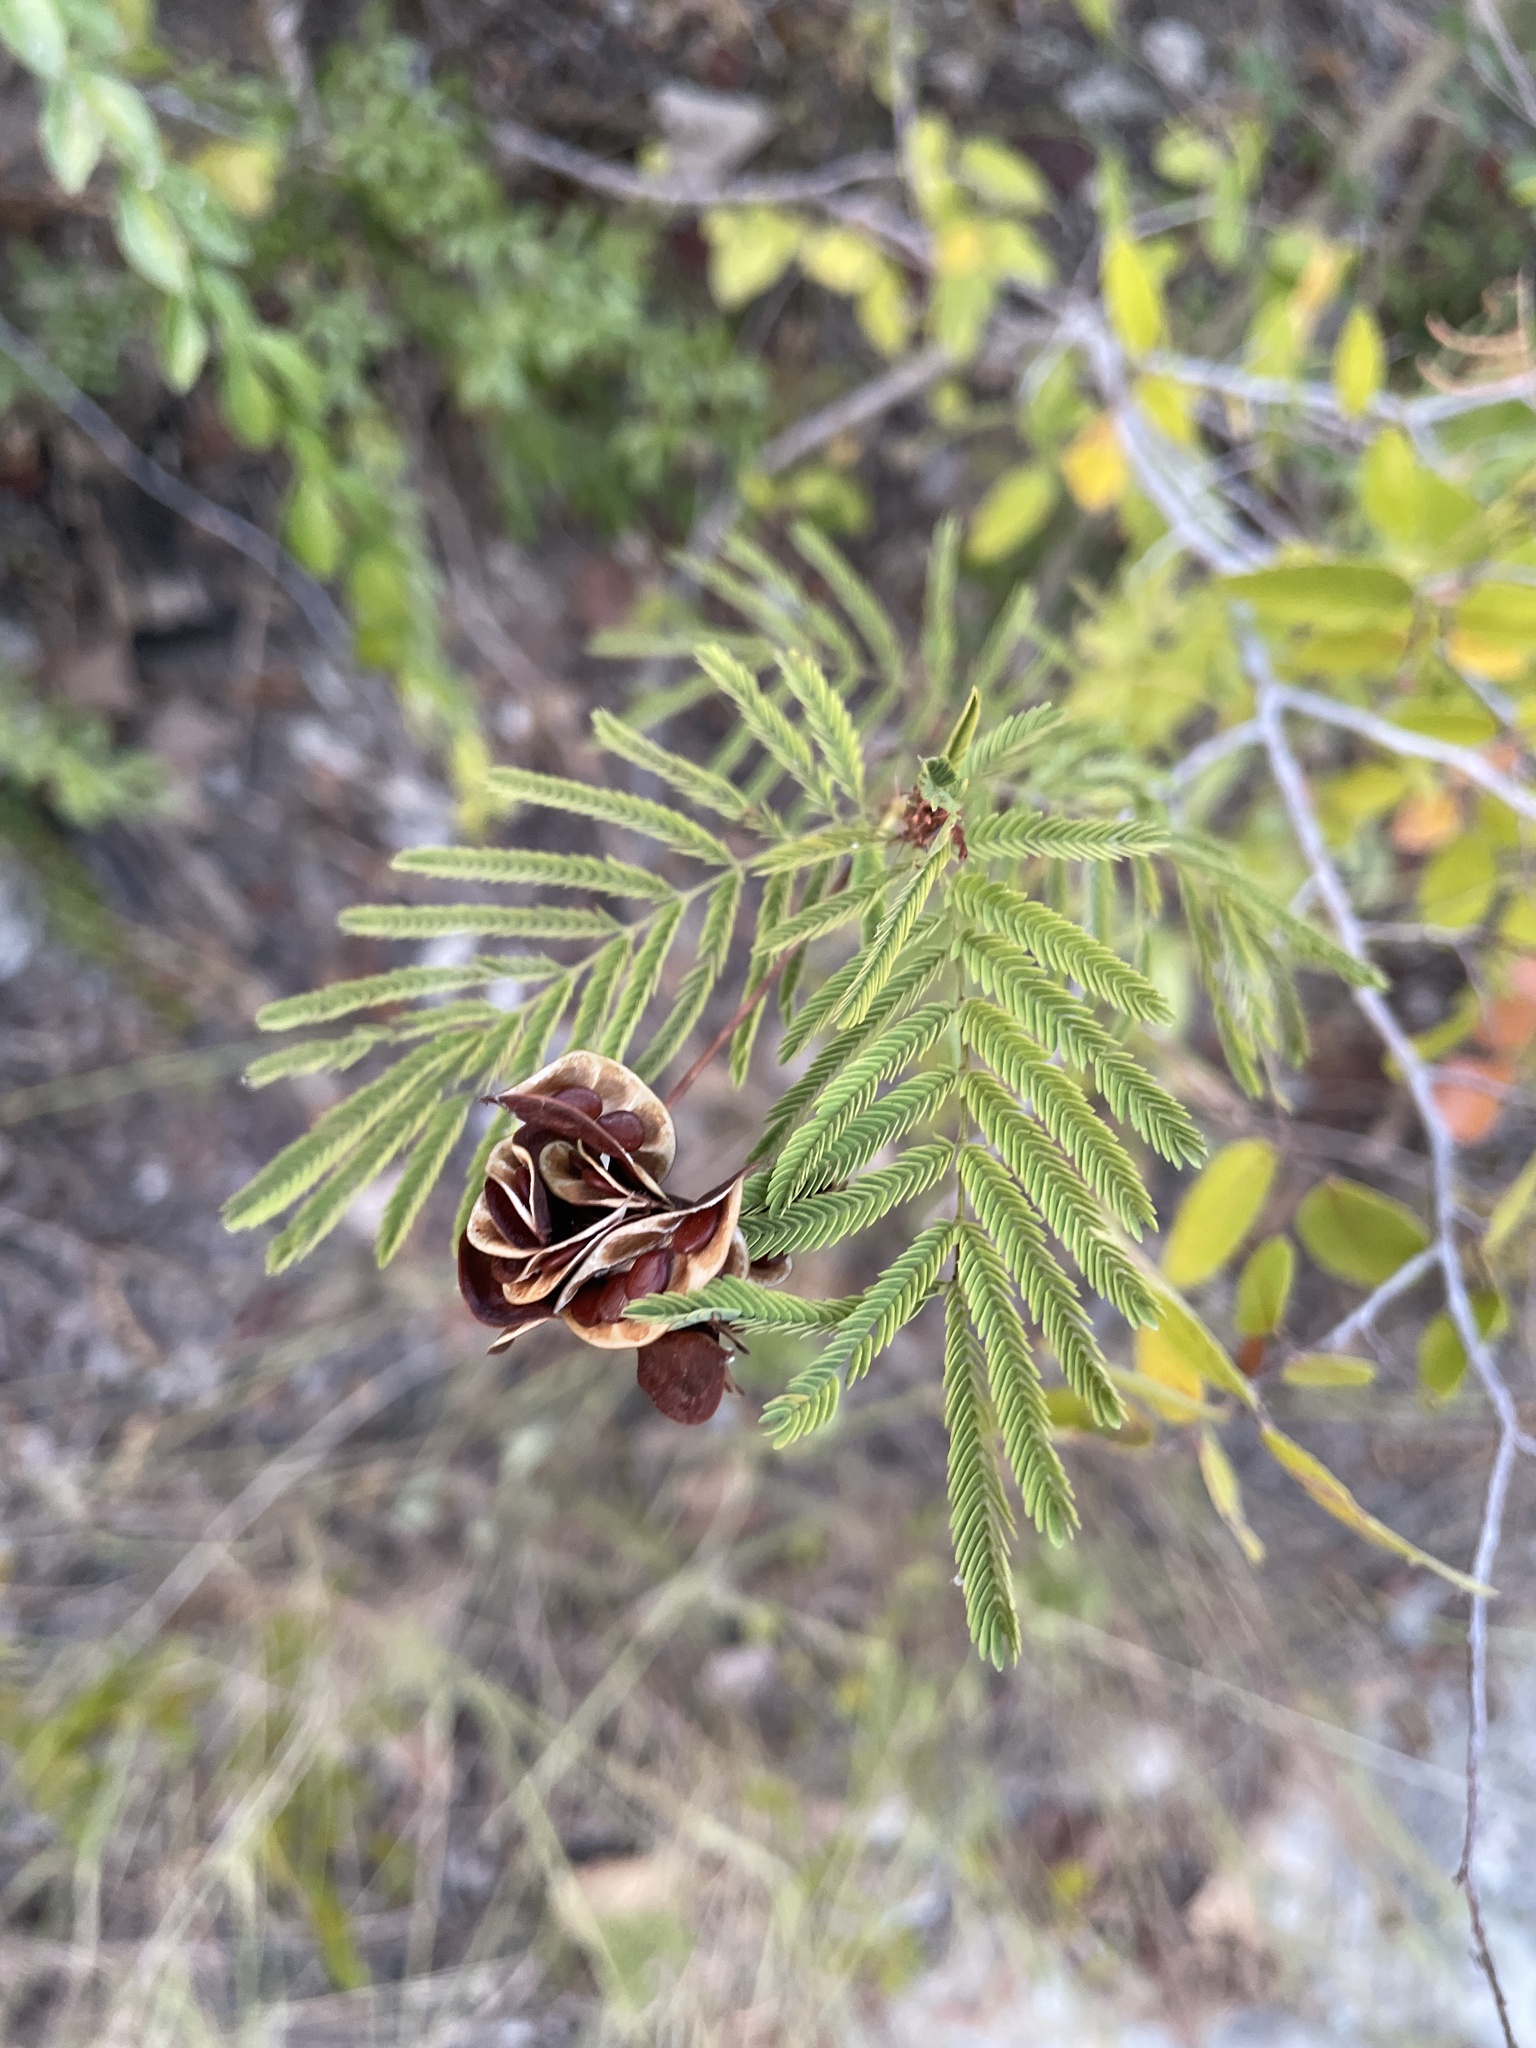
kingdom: Plantae
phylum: Tracheophyta
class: Magnoliopsida
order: Fabales
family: Fabaceae
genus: Desmanthus
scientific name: Desmanthus illinoensis
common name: Illinois bundle-flower
